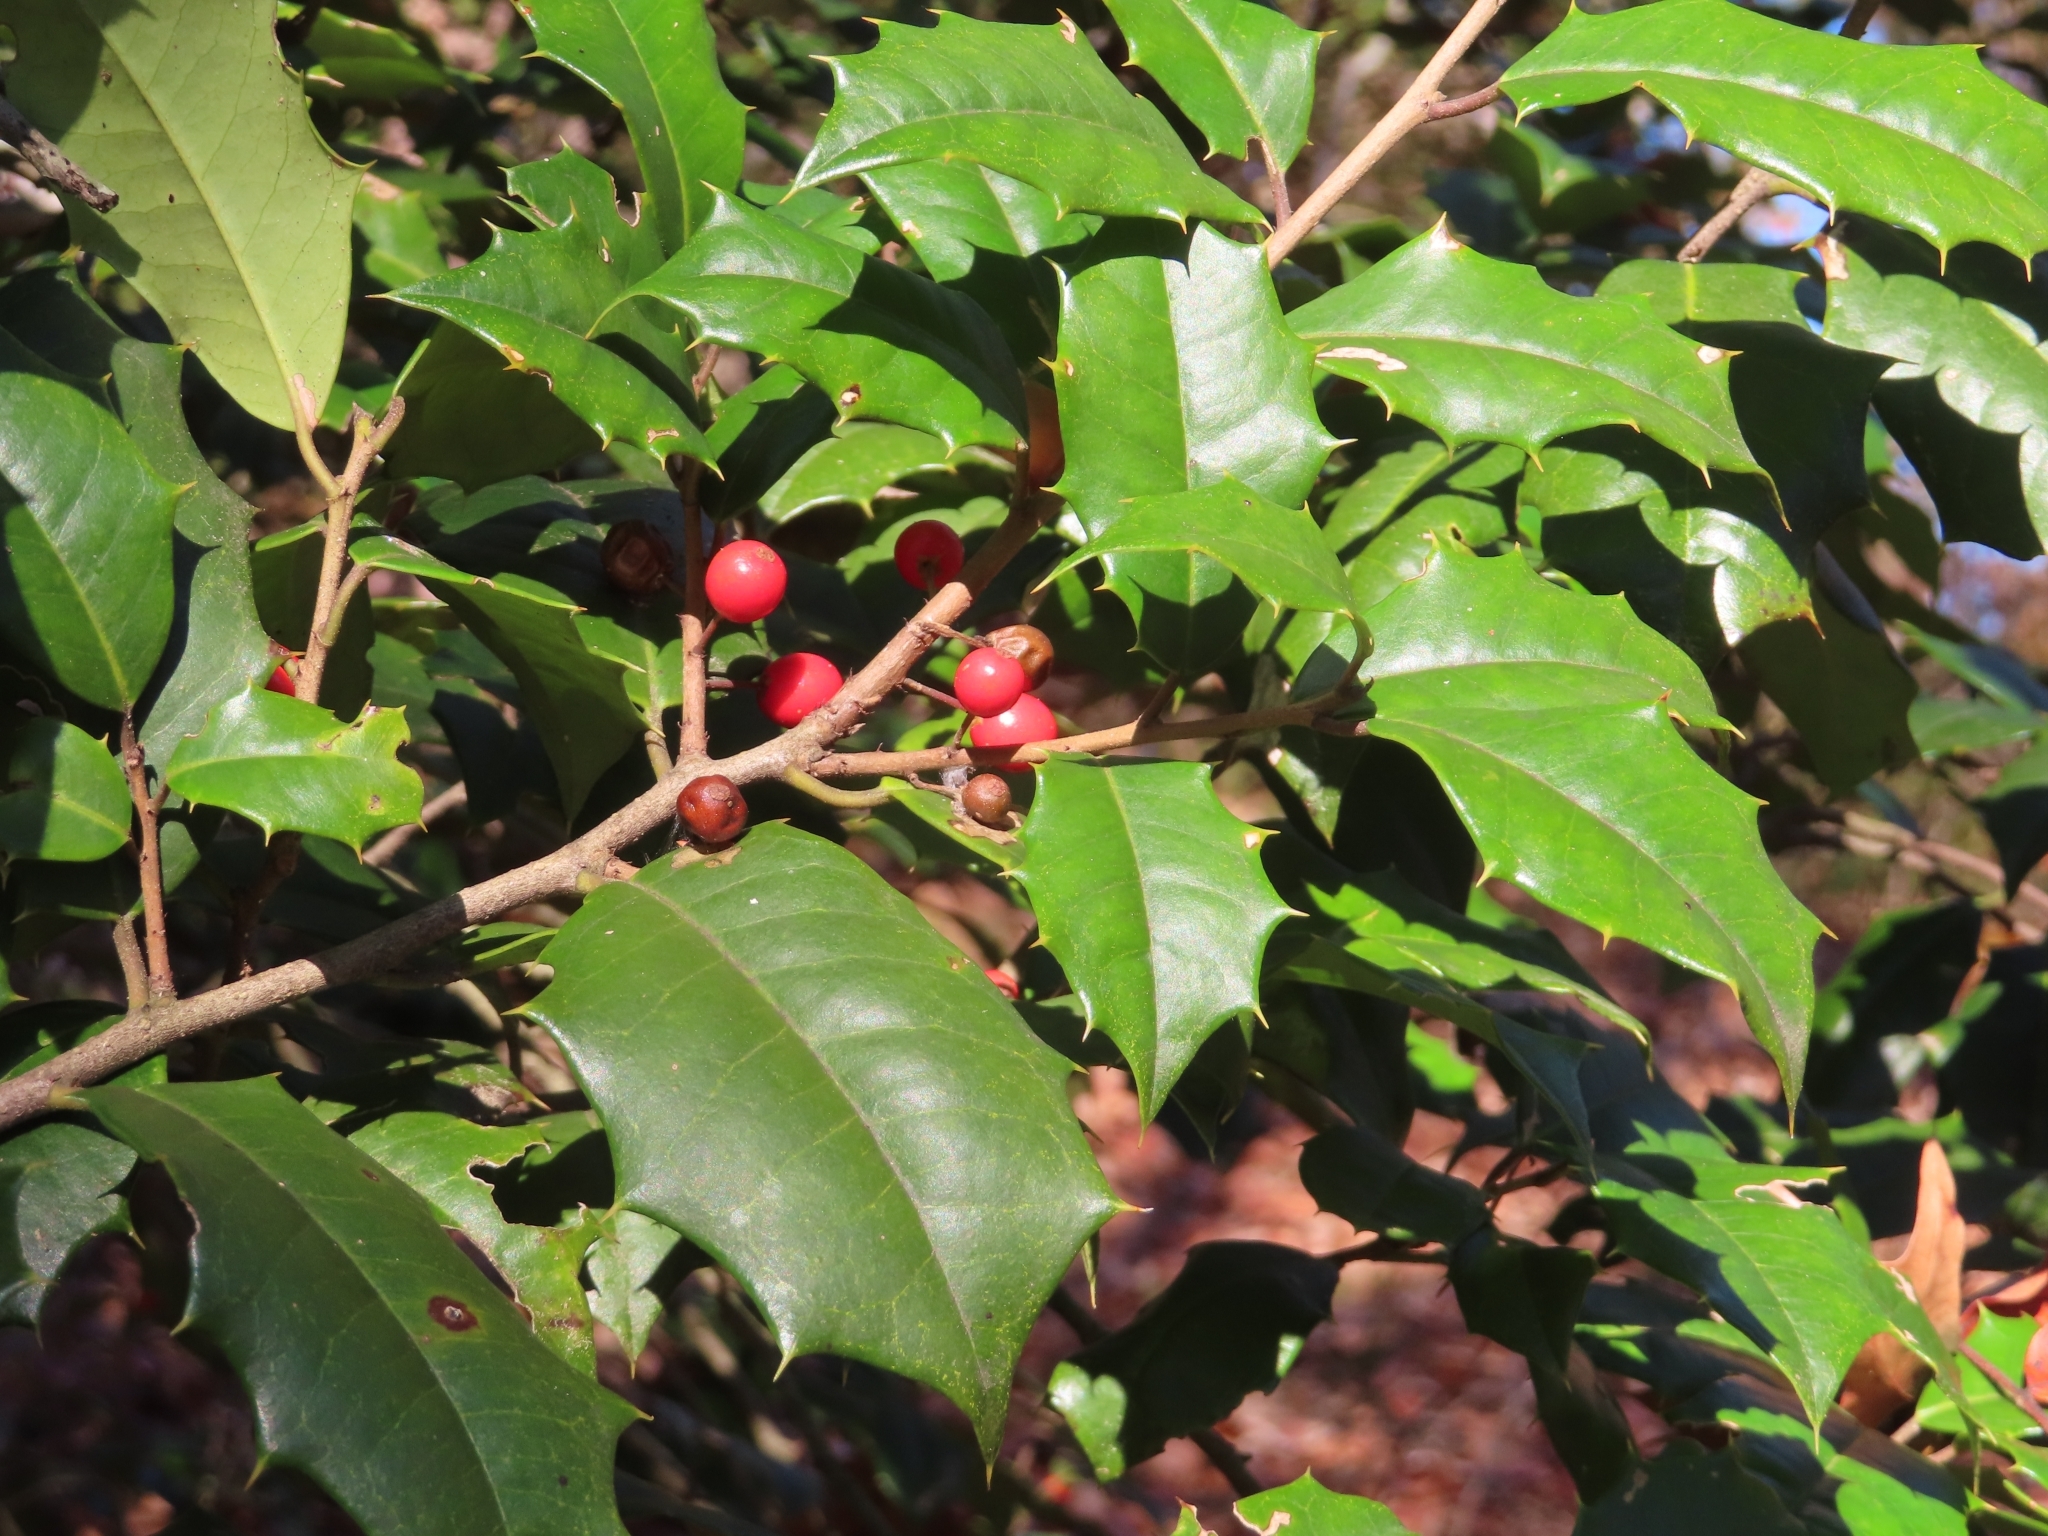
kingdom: Plantae
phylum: Tracheophyta
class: Magnoliopsida
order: Aquifoliales
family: Aquifoliaceae
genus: Ilex
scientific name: Ilex opaca
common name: American holly
